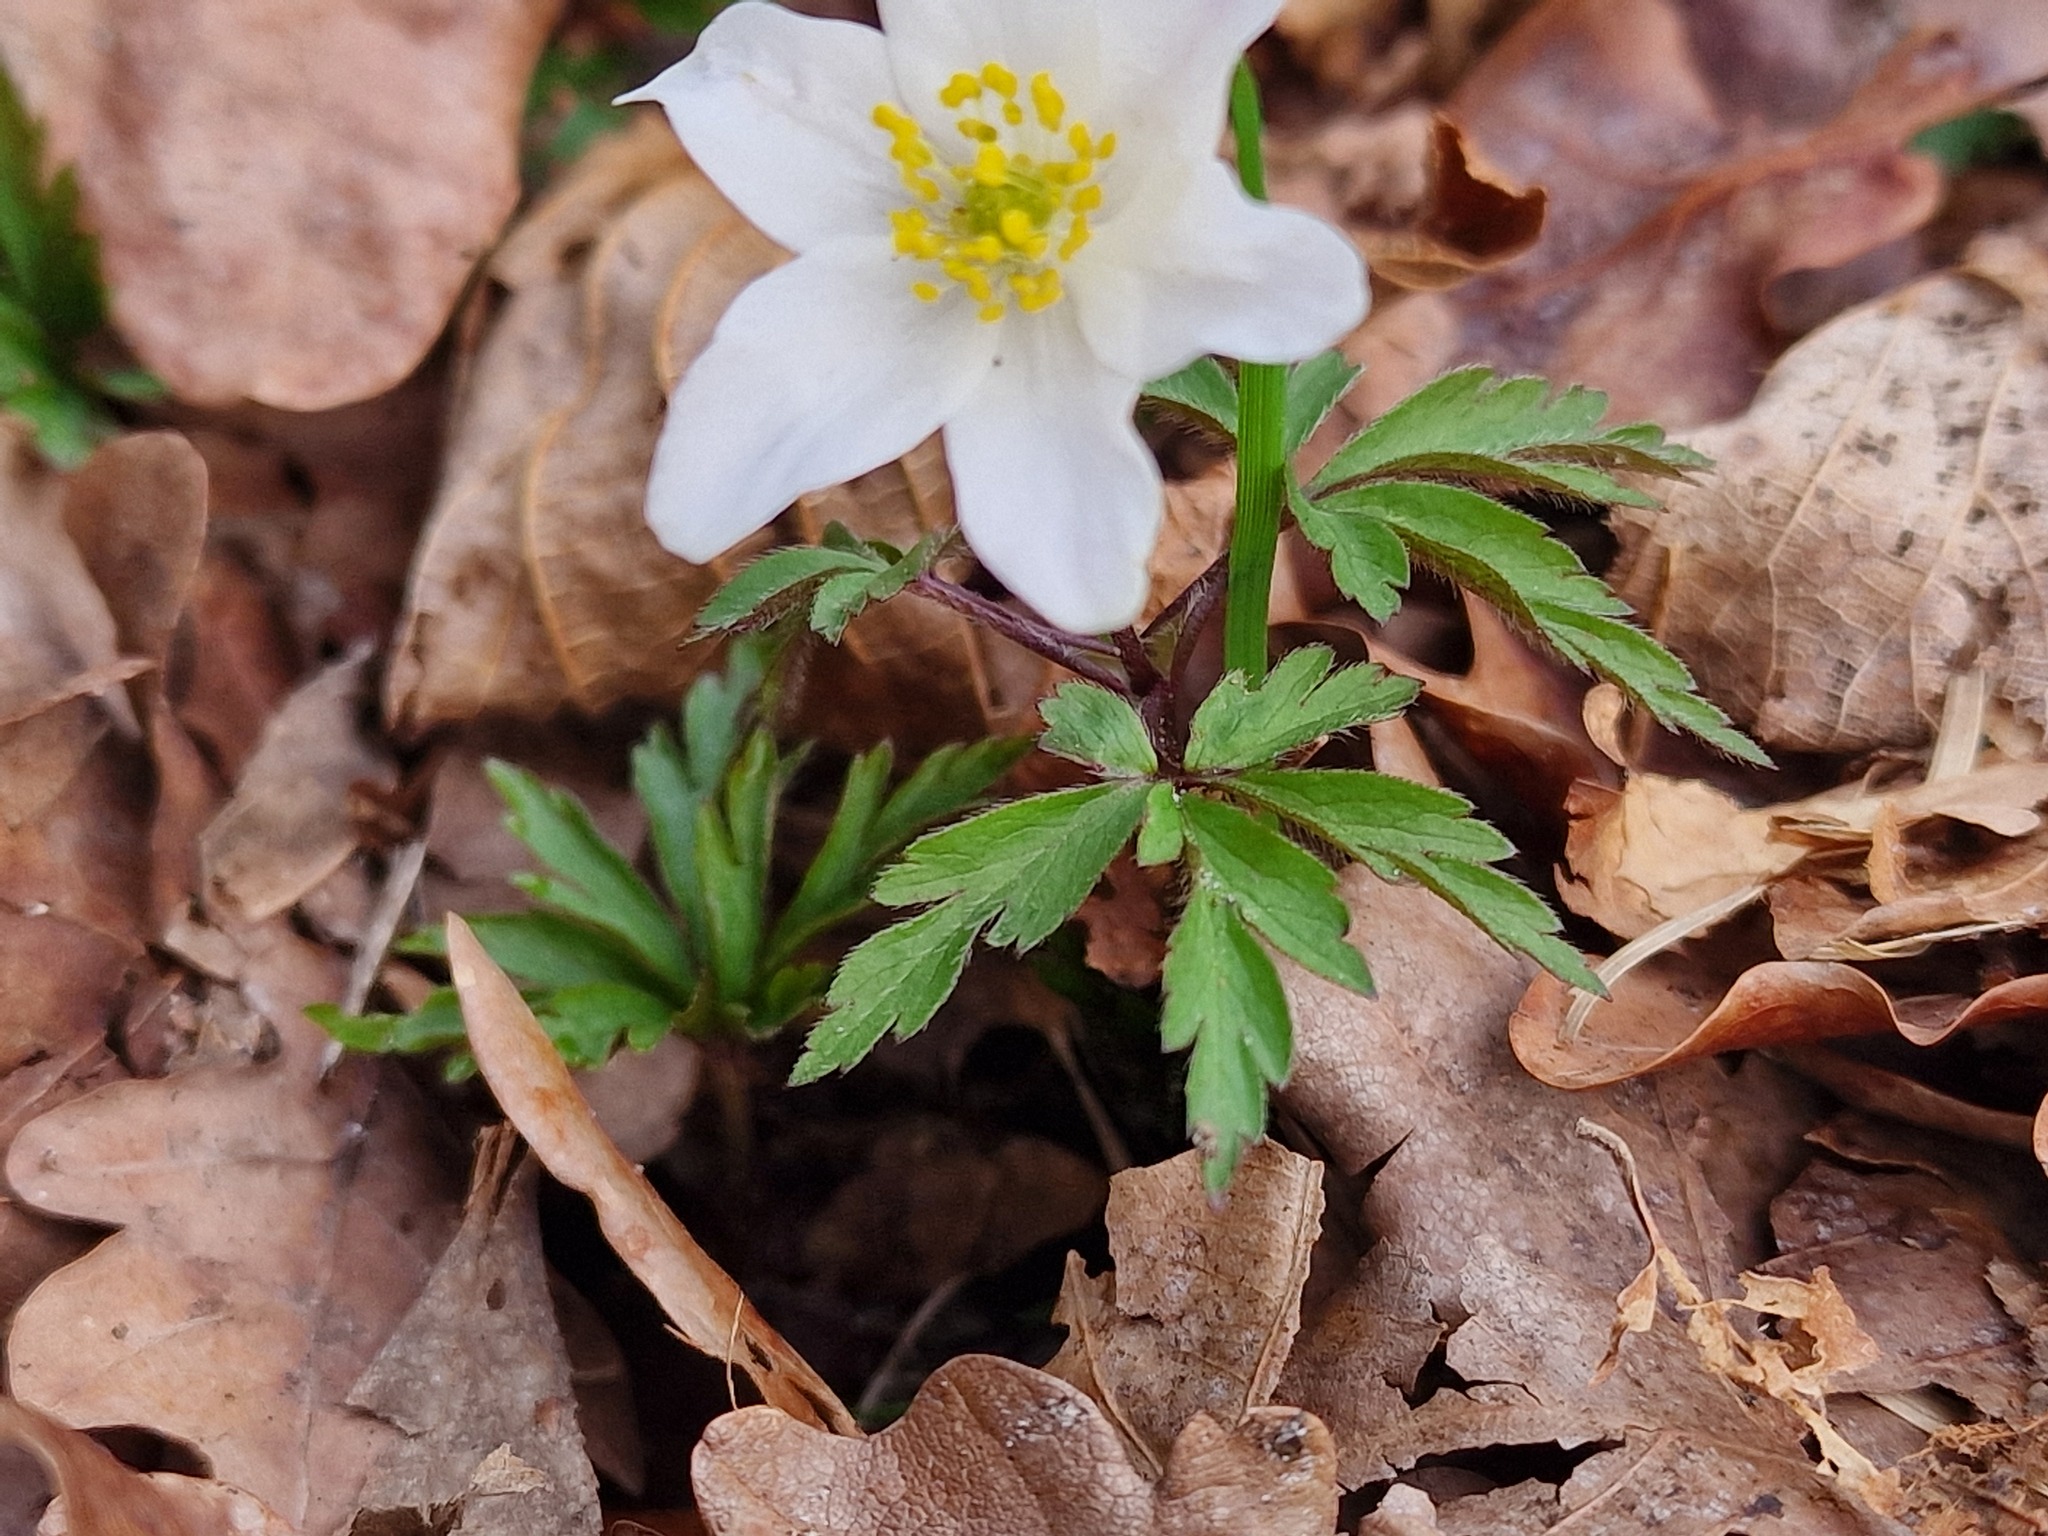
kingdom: Plantae
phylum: Tracheophyta
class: Magnoliopsida
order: Ranunculales
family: Ranunculaceae
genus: Anemone
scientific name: Anemone nemorosa
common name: Wood anemone
